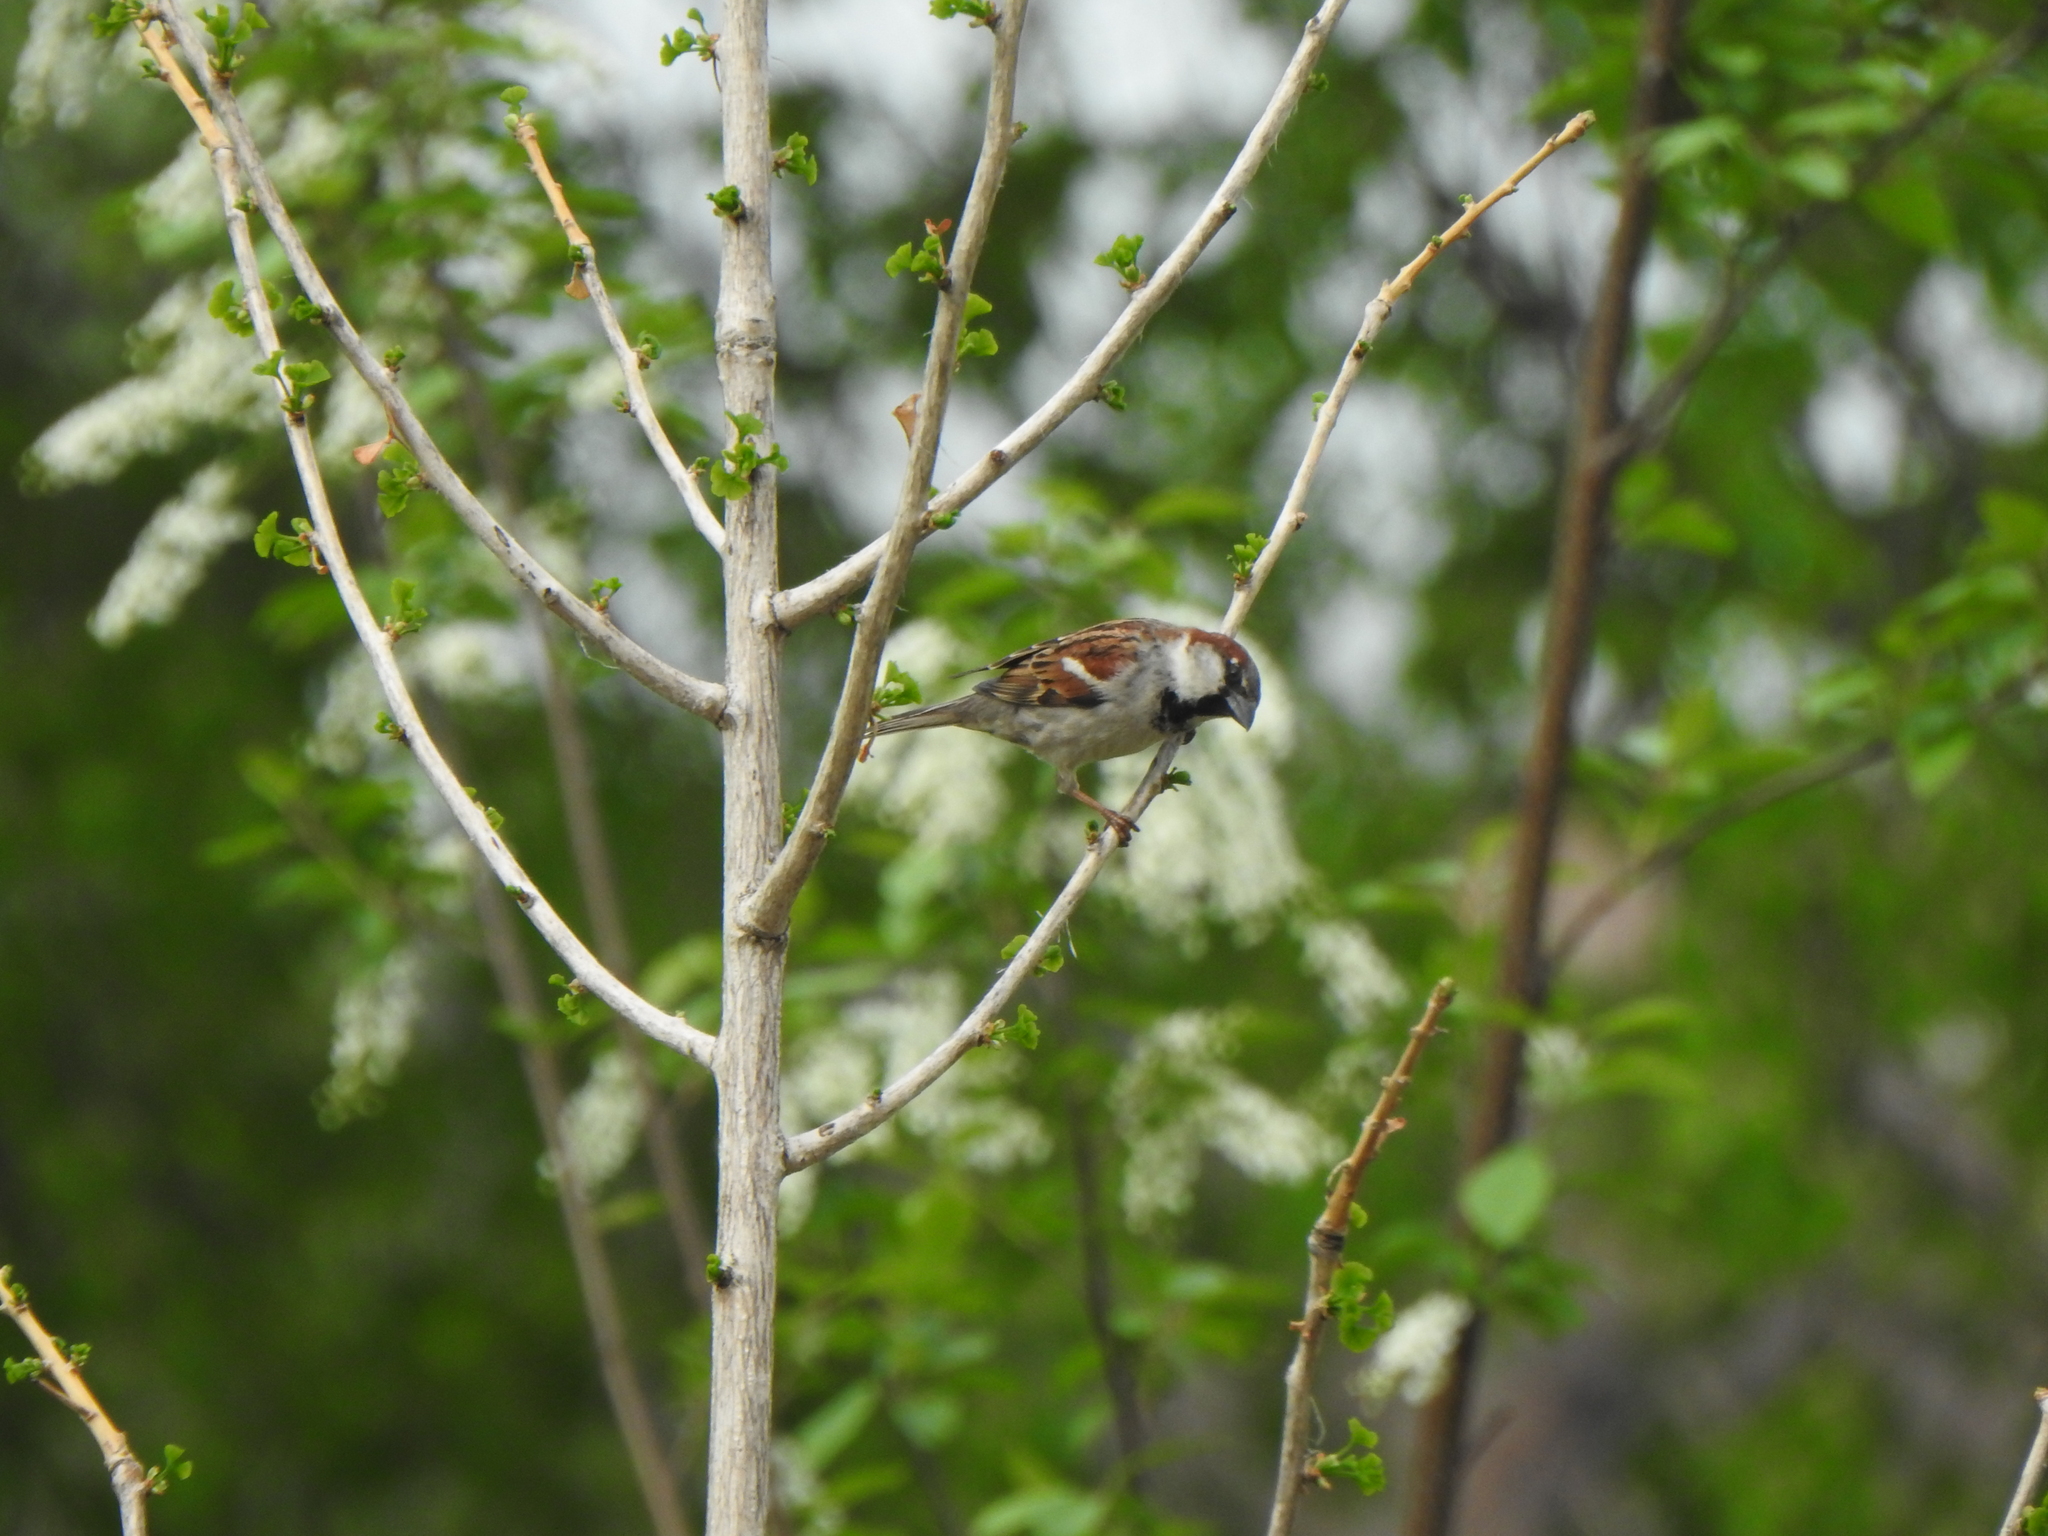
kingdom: Animalia
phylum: Chordata
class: Aves
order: Passeriformes
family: Passeridae
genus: Passer
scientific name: Passer domesticus
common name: House sparrow
